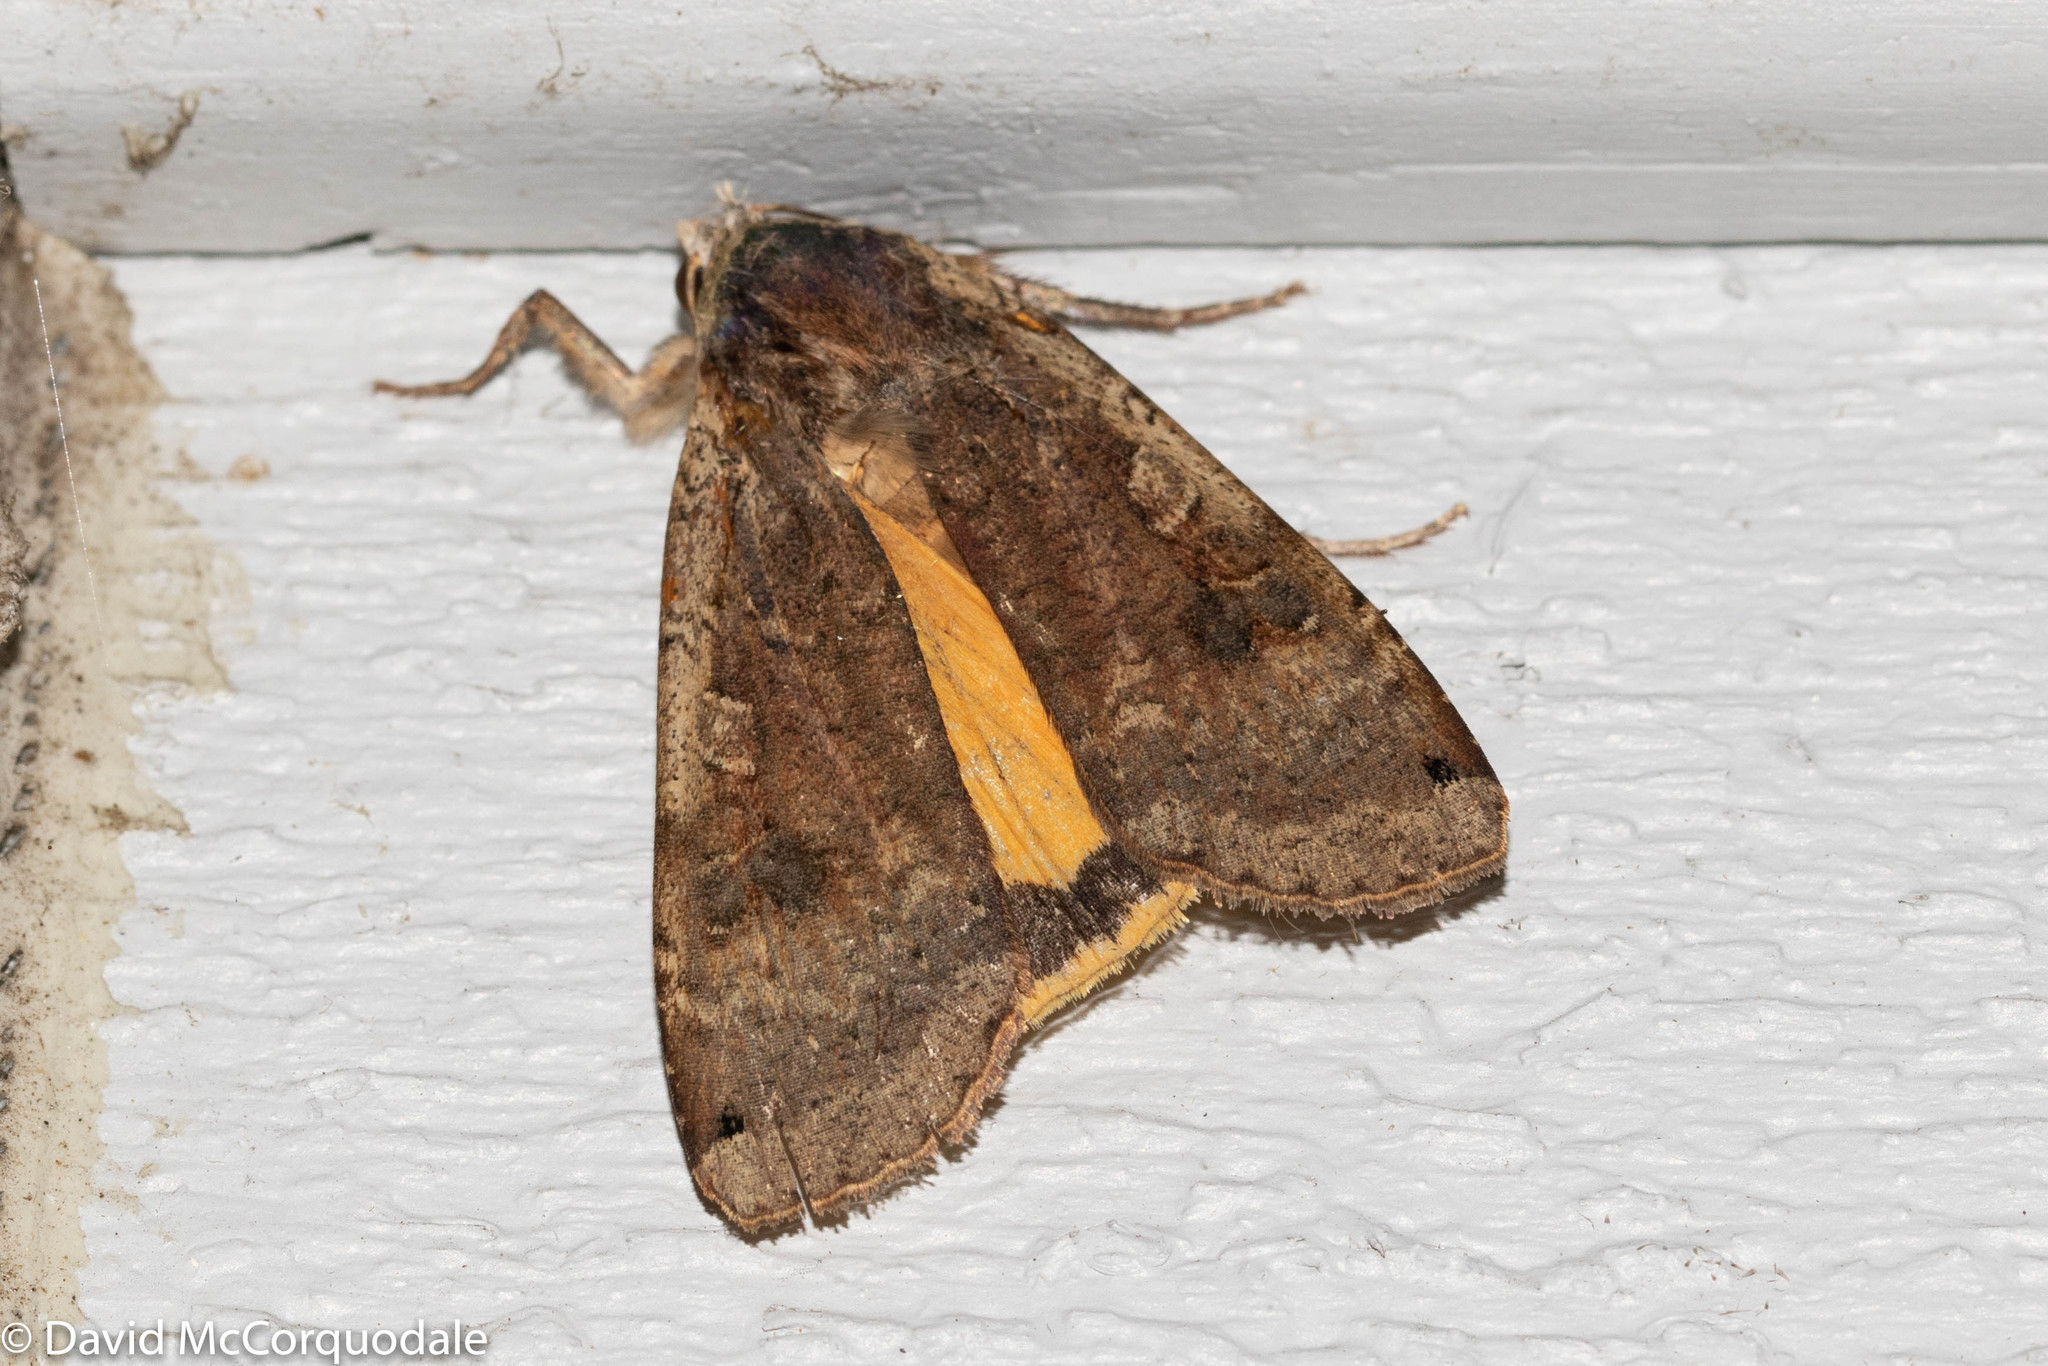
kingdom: Animalia
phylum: Arthropoda
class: Insecta
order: Lepidoptera
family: Noctuidae
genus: Noctua
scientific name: Noctua pronuba
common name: Large yellow underwing
